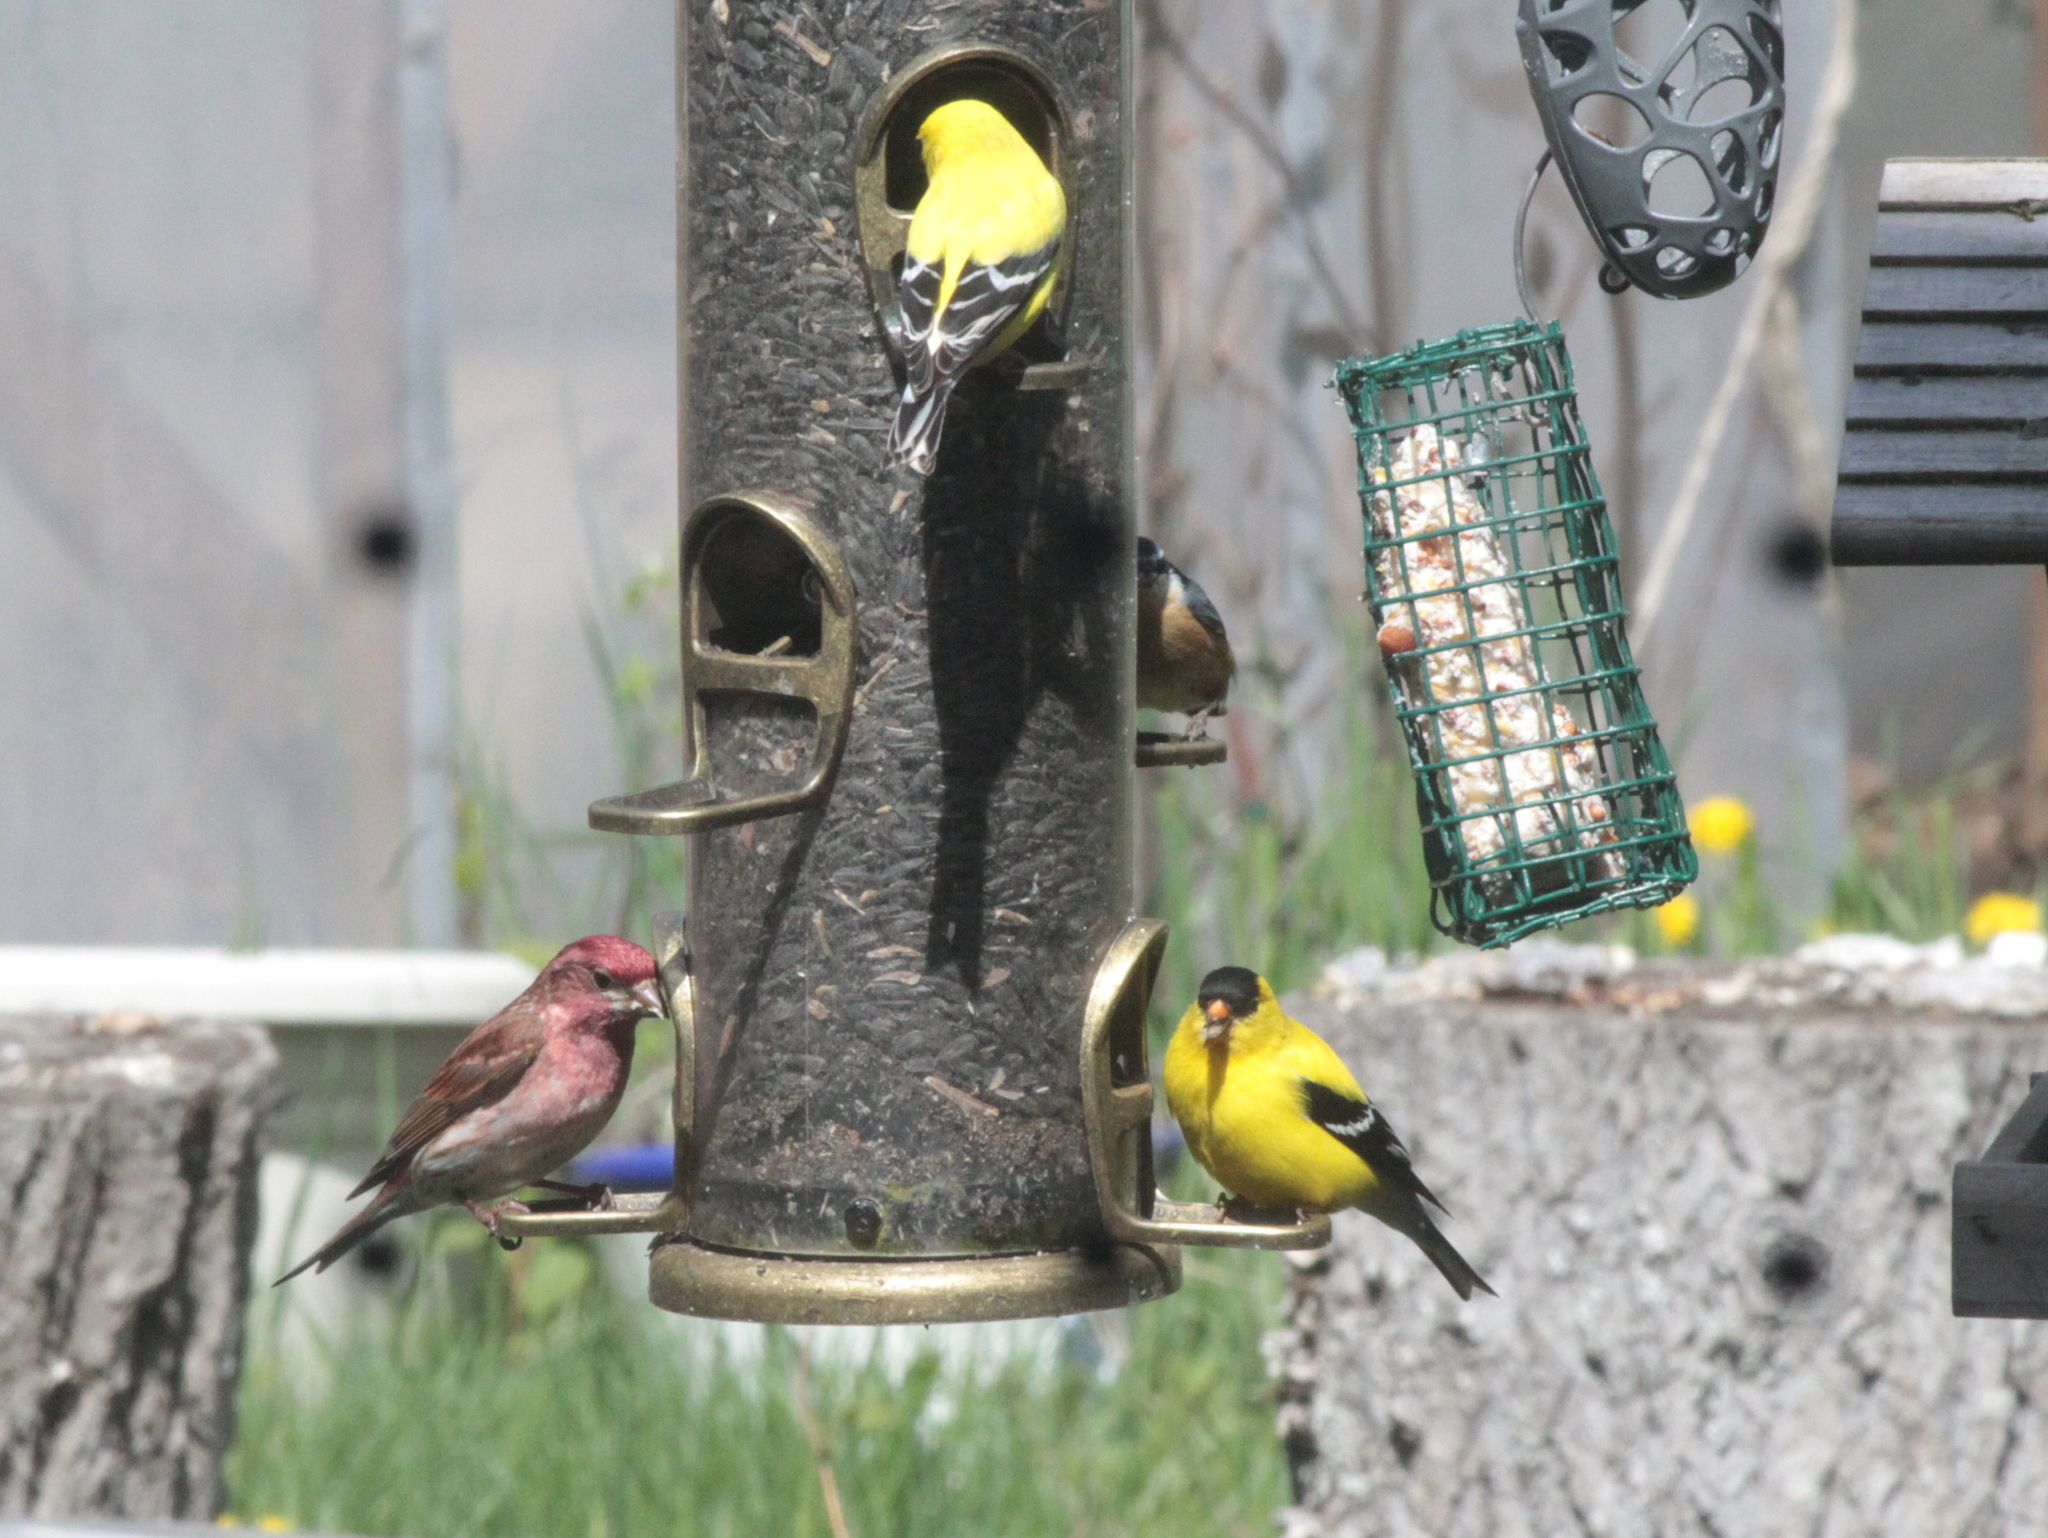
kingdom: Animalia
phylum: Chordata
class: Aves
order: Passeriformes
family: Fringillidae
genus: Spinus
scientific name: Spinus tristis
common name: American goldfinch
